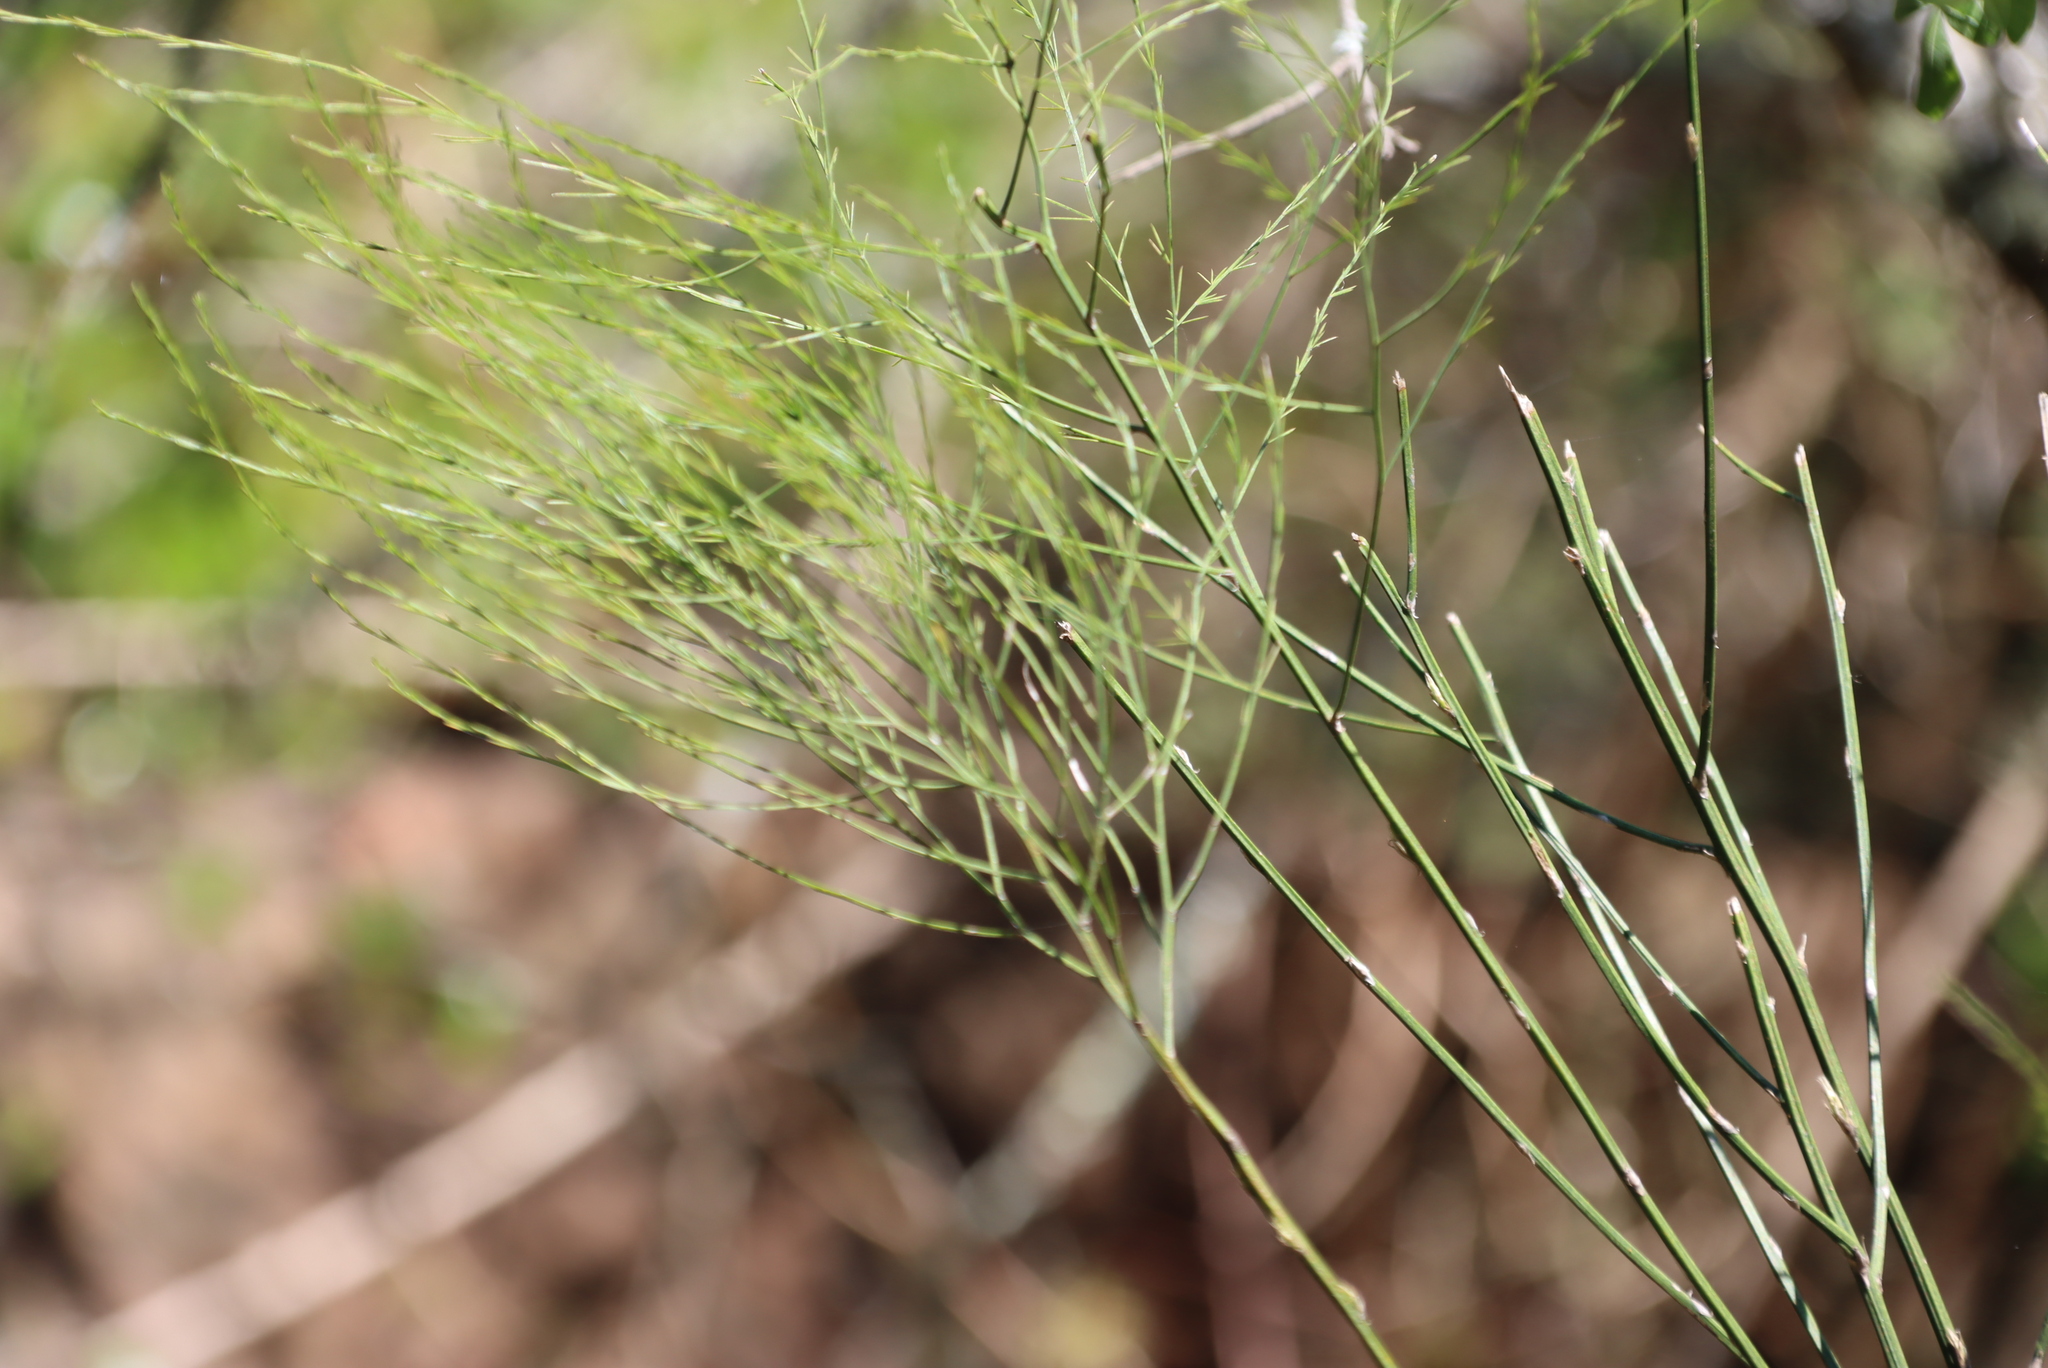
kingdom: Plantae
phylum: Tracheophyta
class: Liliopsida
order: Asparagales
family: Asparagaceae
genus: Asparagus
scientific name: Asparagus virgatus
